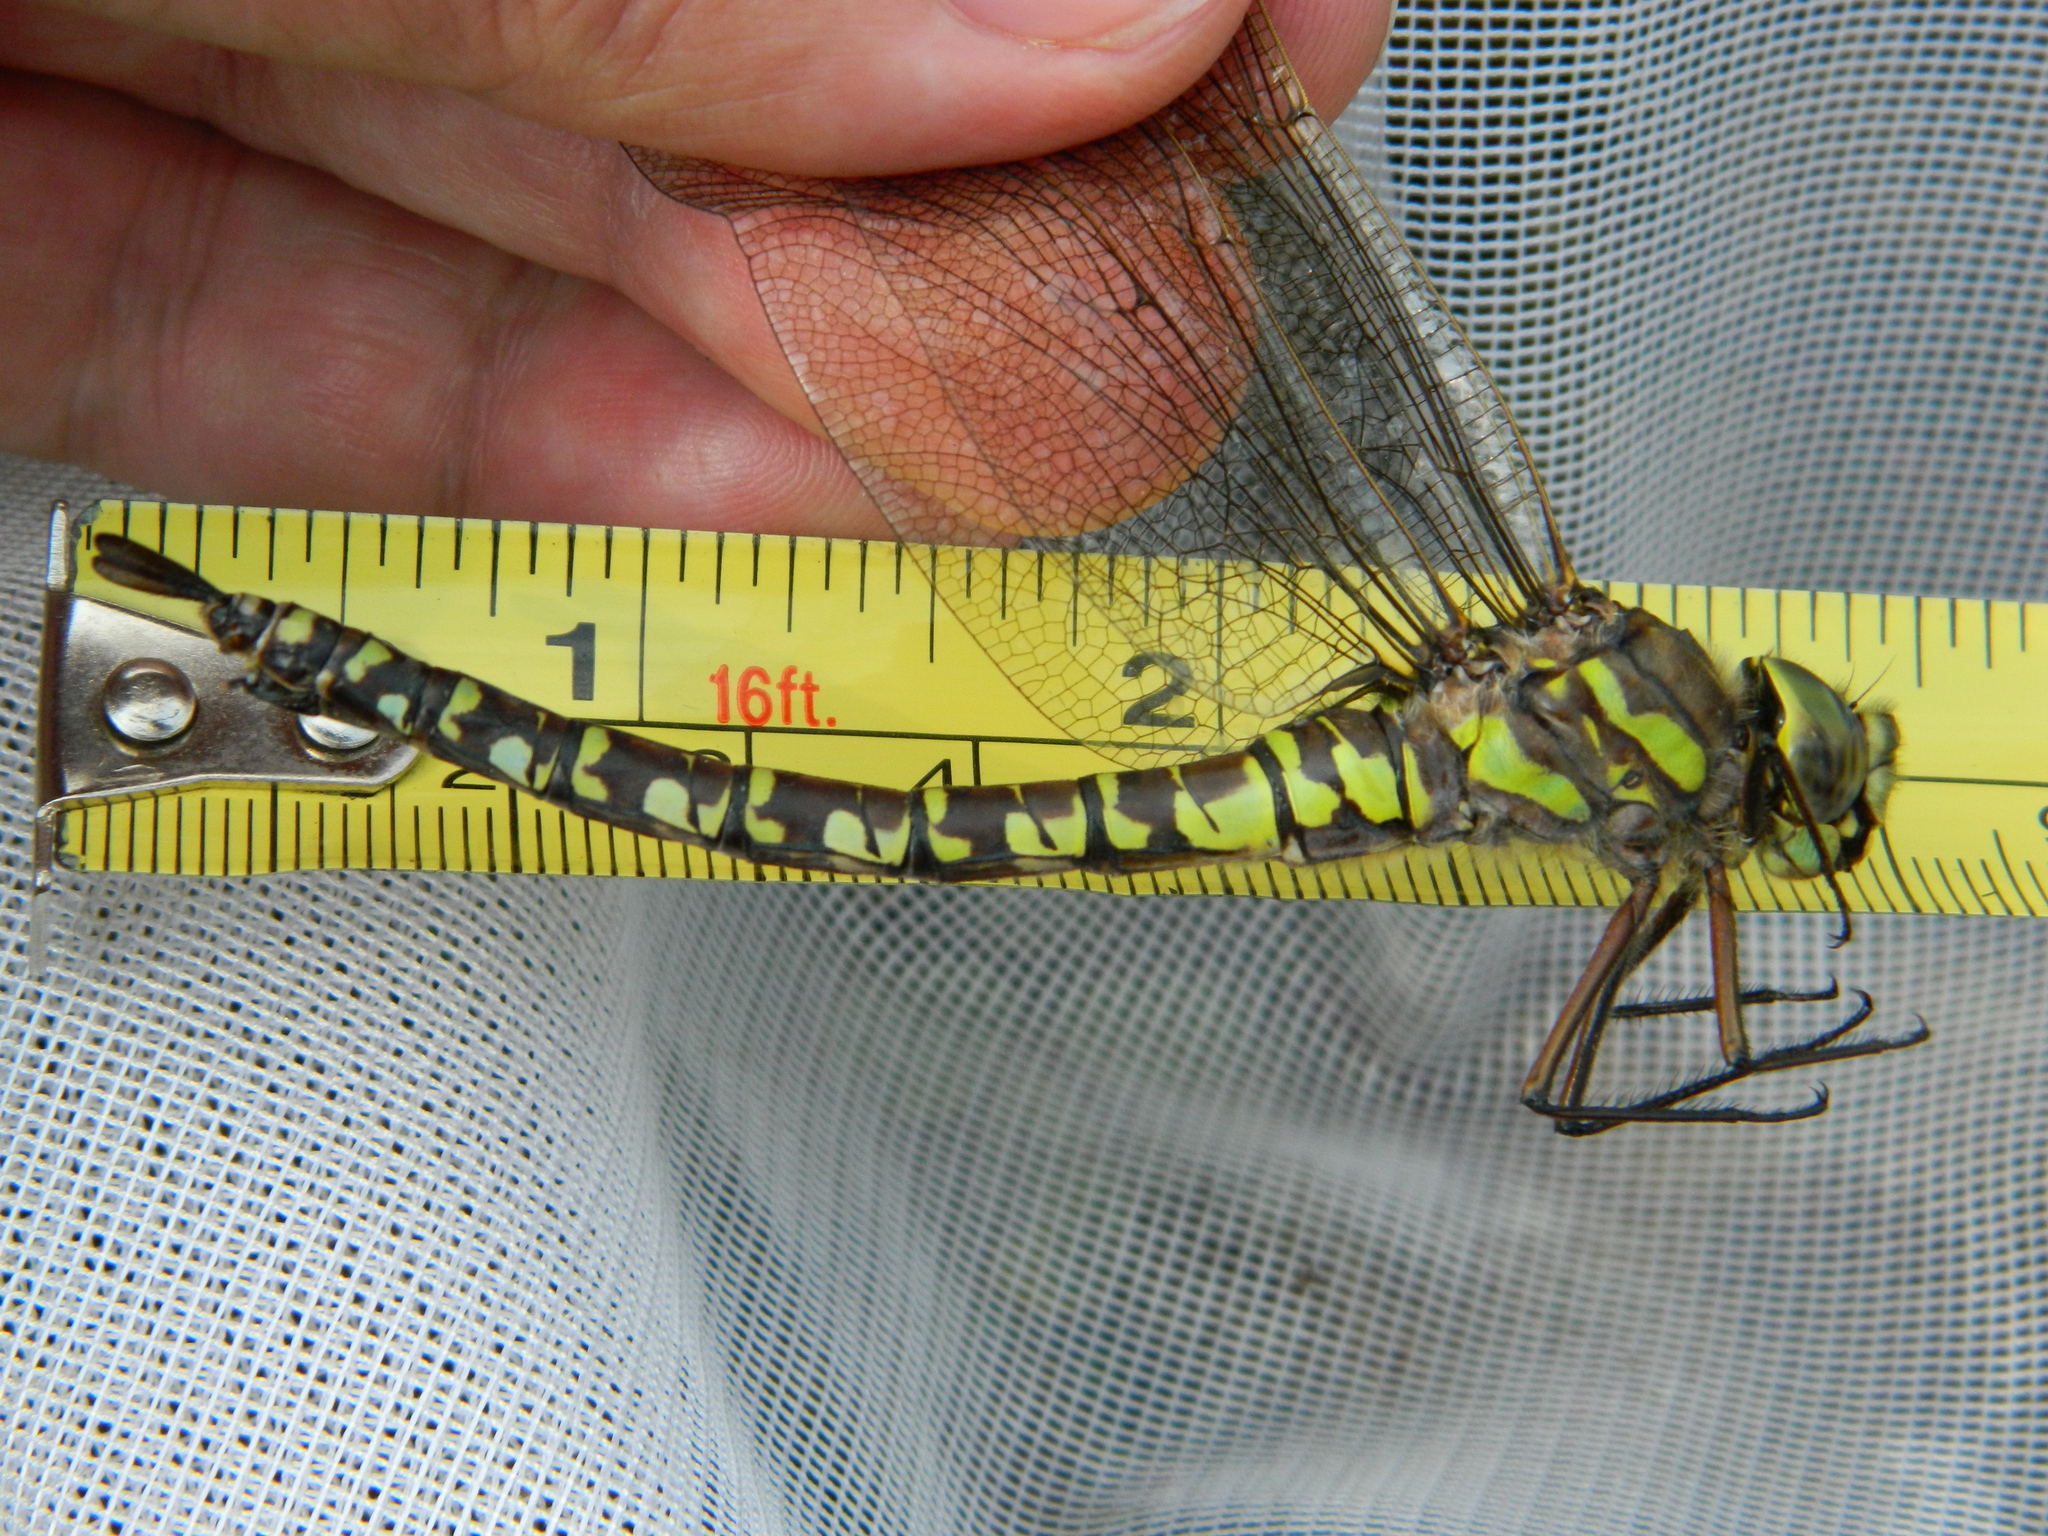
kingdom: Animalia
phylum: Arthropoda
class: Insecta
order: Odonata
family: Aeshnidae
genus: Aeshna
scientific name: Aeshna eremita
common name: Lake darner
